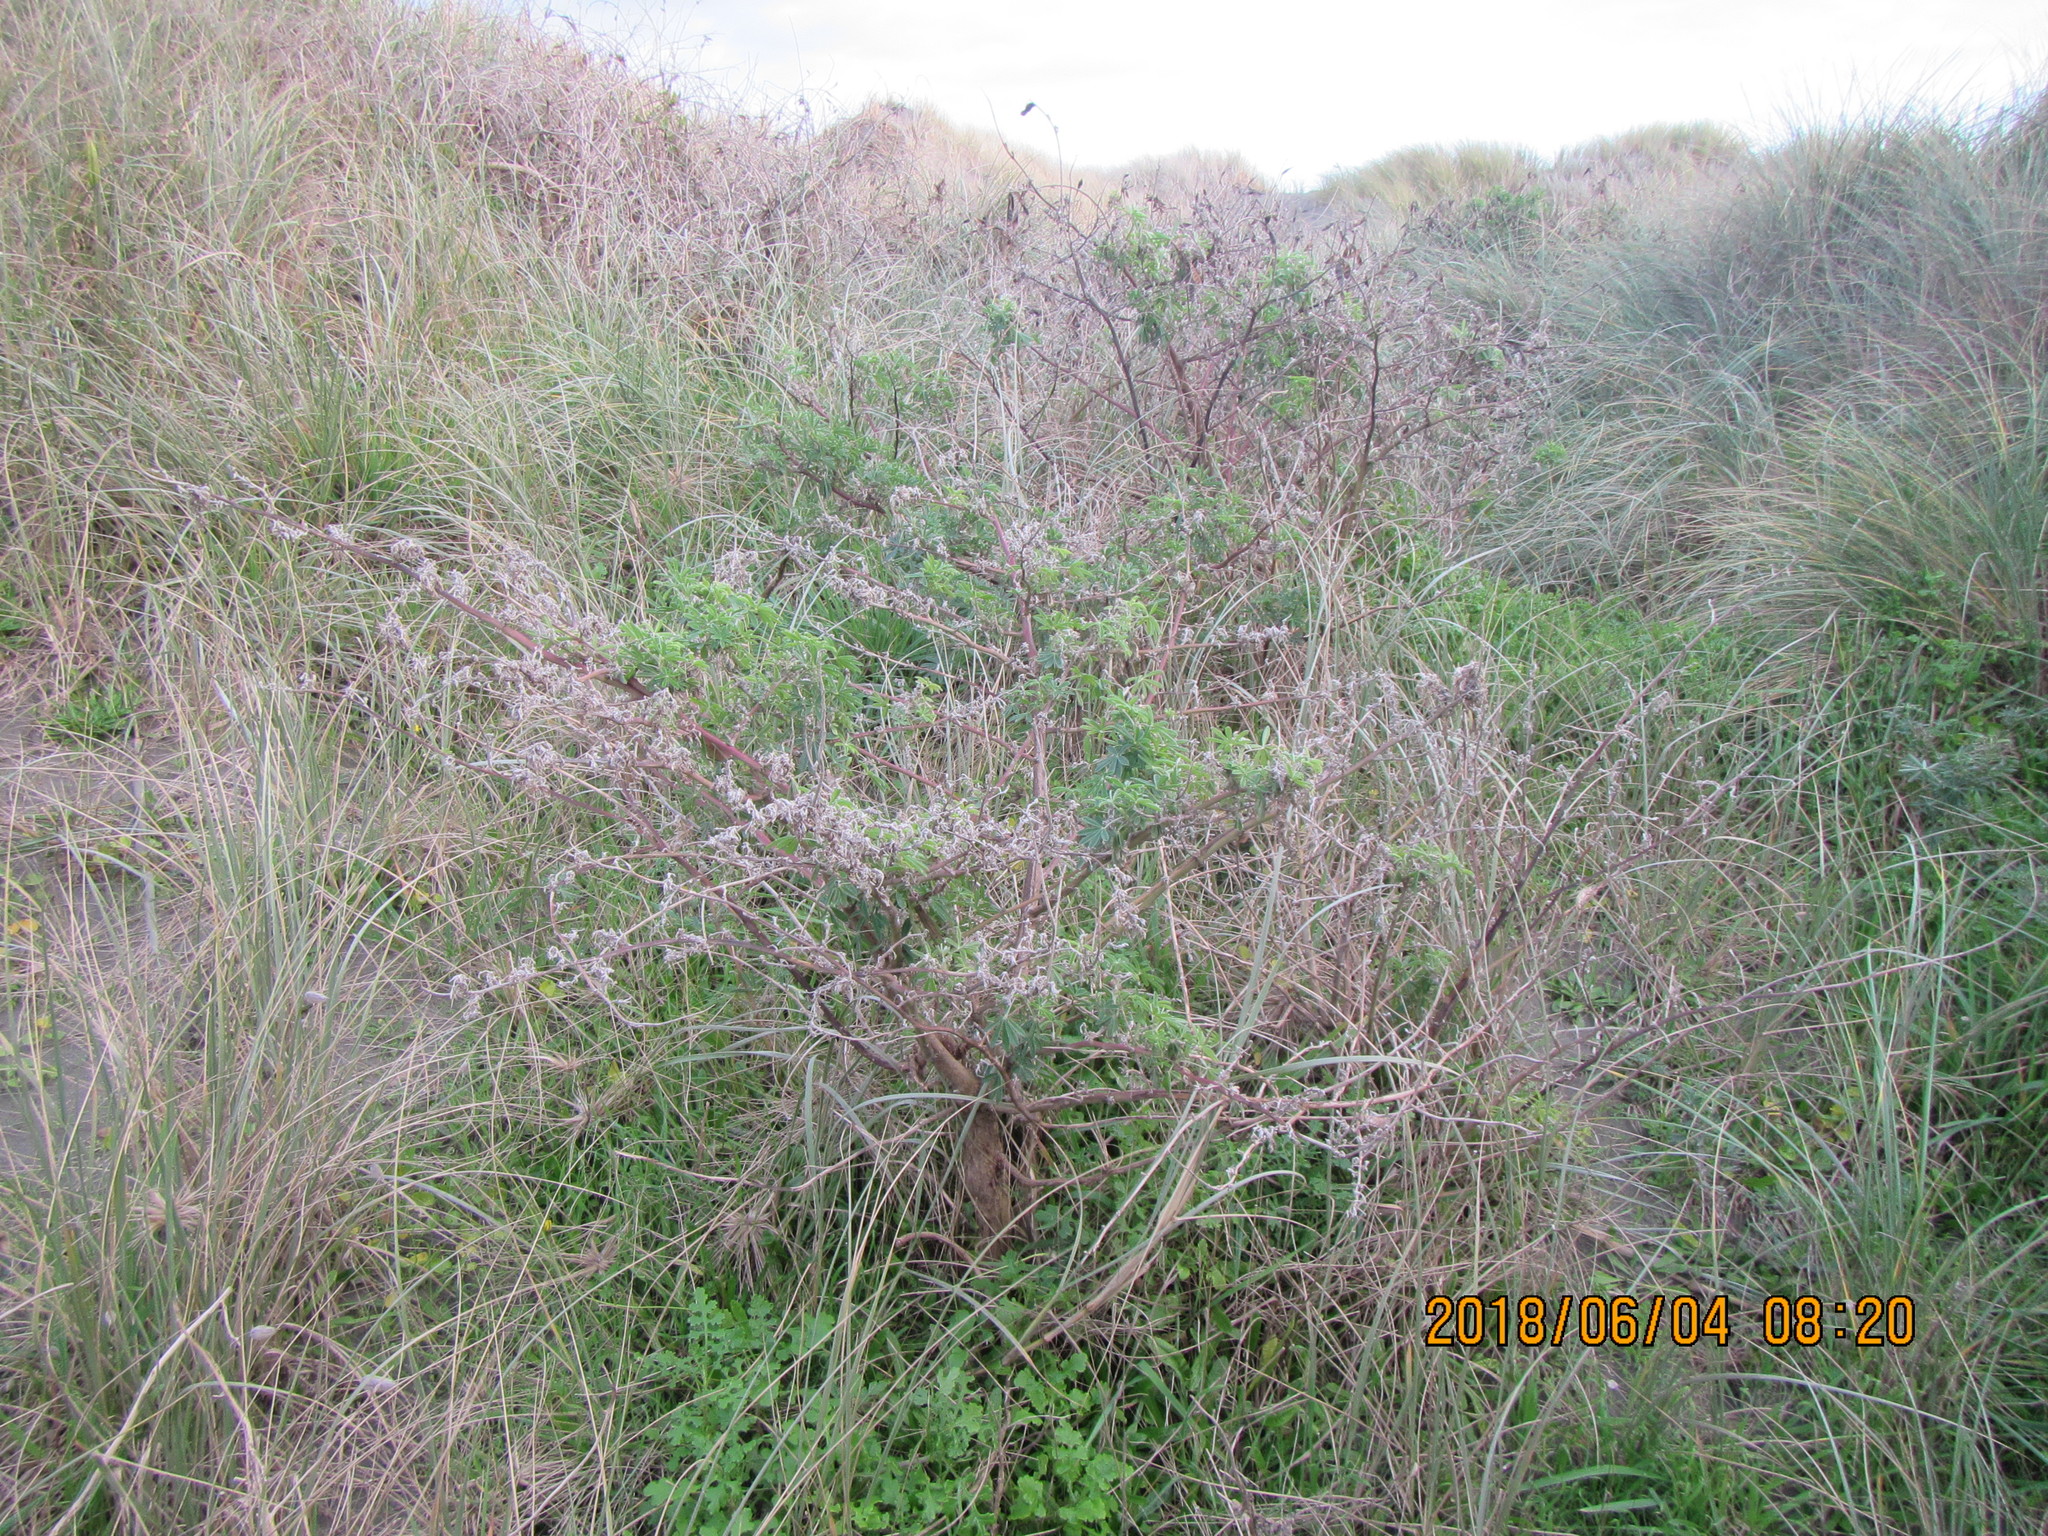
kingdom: Plantae
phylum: Tracheophyta
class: Magnoliopsida
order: Fabales
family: Fabaceae
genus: Lupinus
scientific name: Lupinus arboreus
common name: Yellow bush lupine
